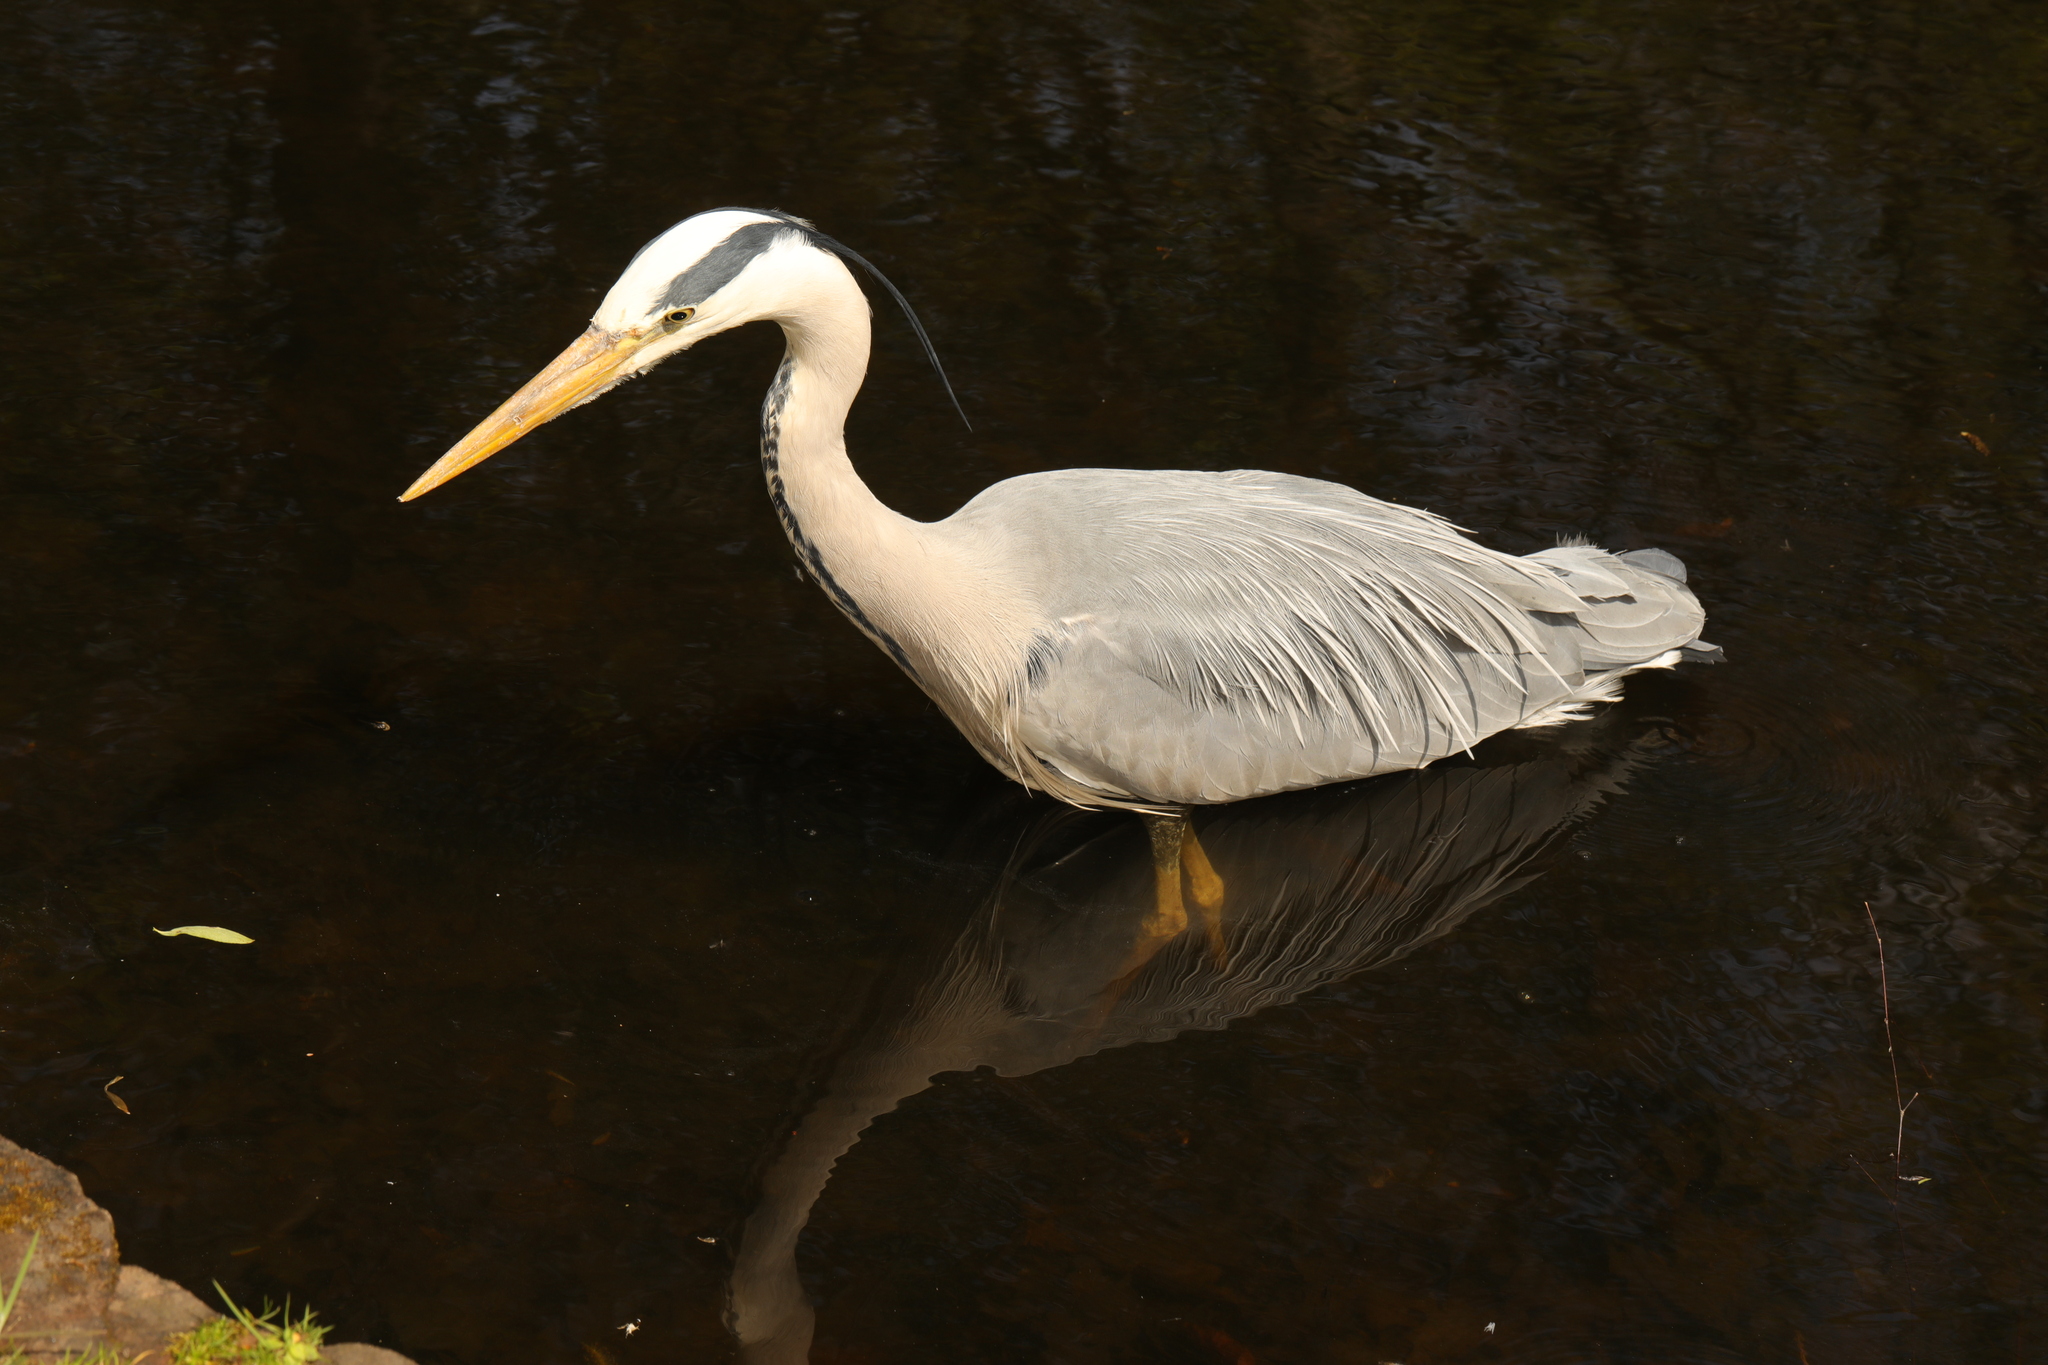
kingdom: Animalia
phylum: Chordata
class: Aves
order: Pelecaniformes
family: Ardeidae
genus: Ardea
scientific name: Ardea cinerea
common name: Grey heron
